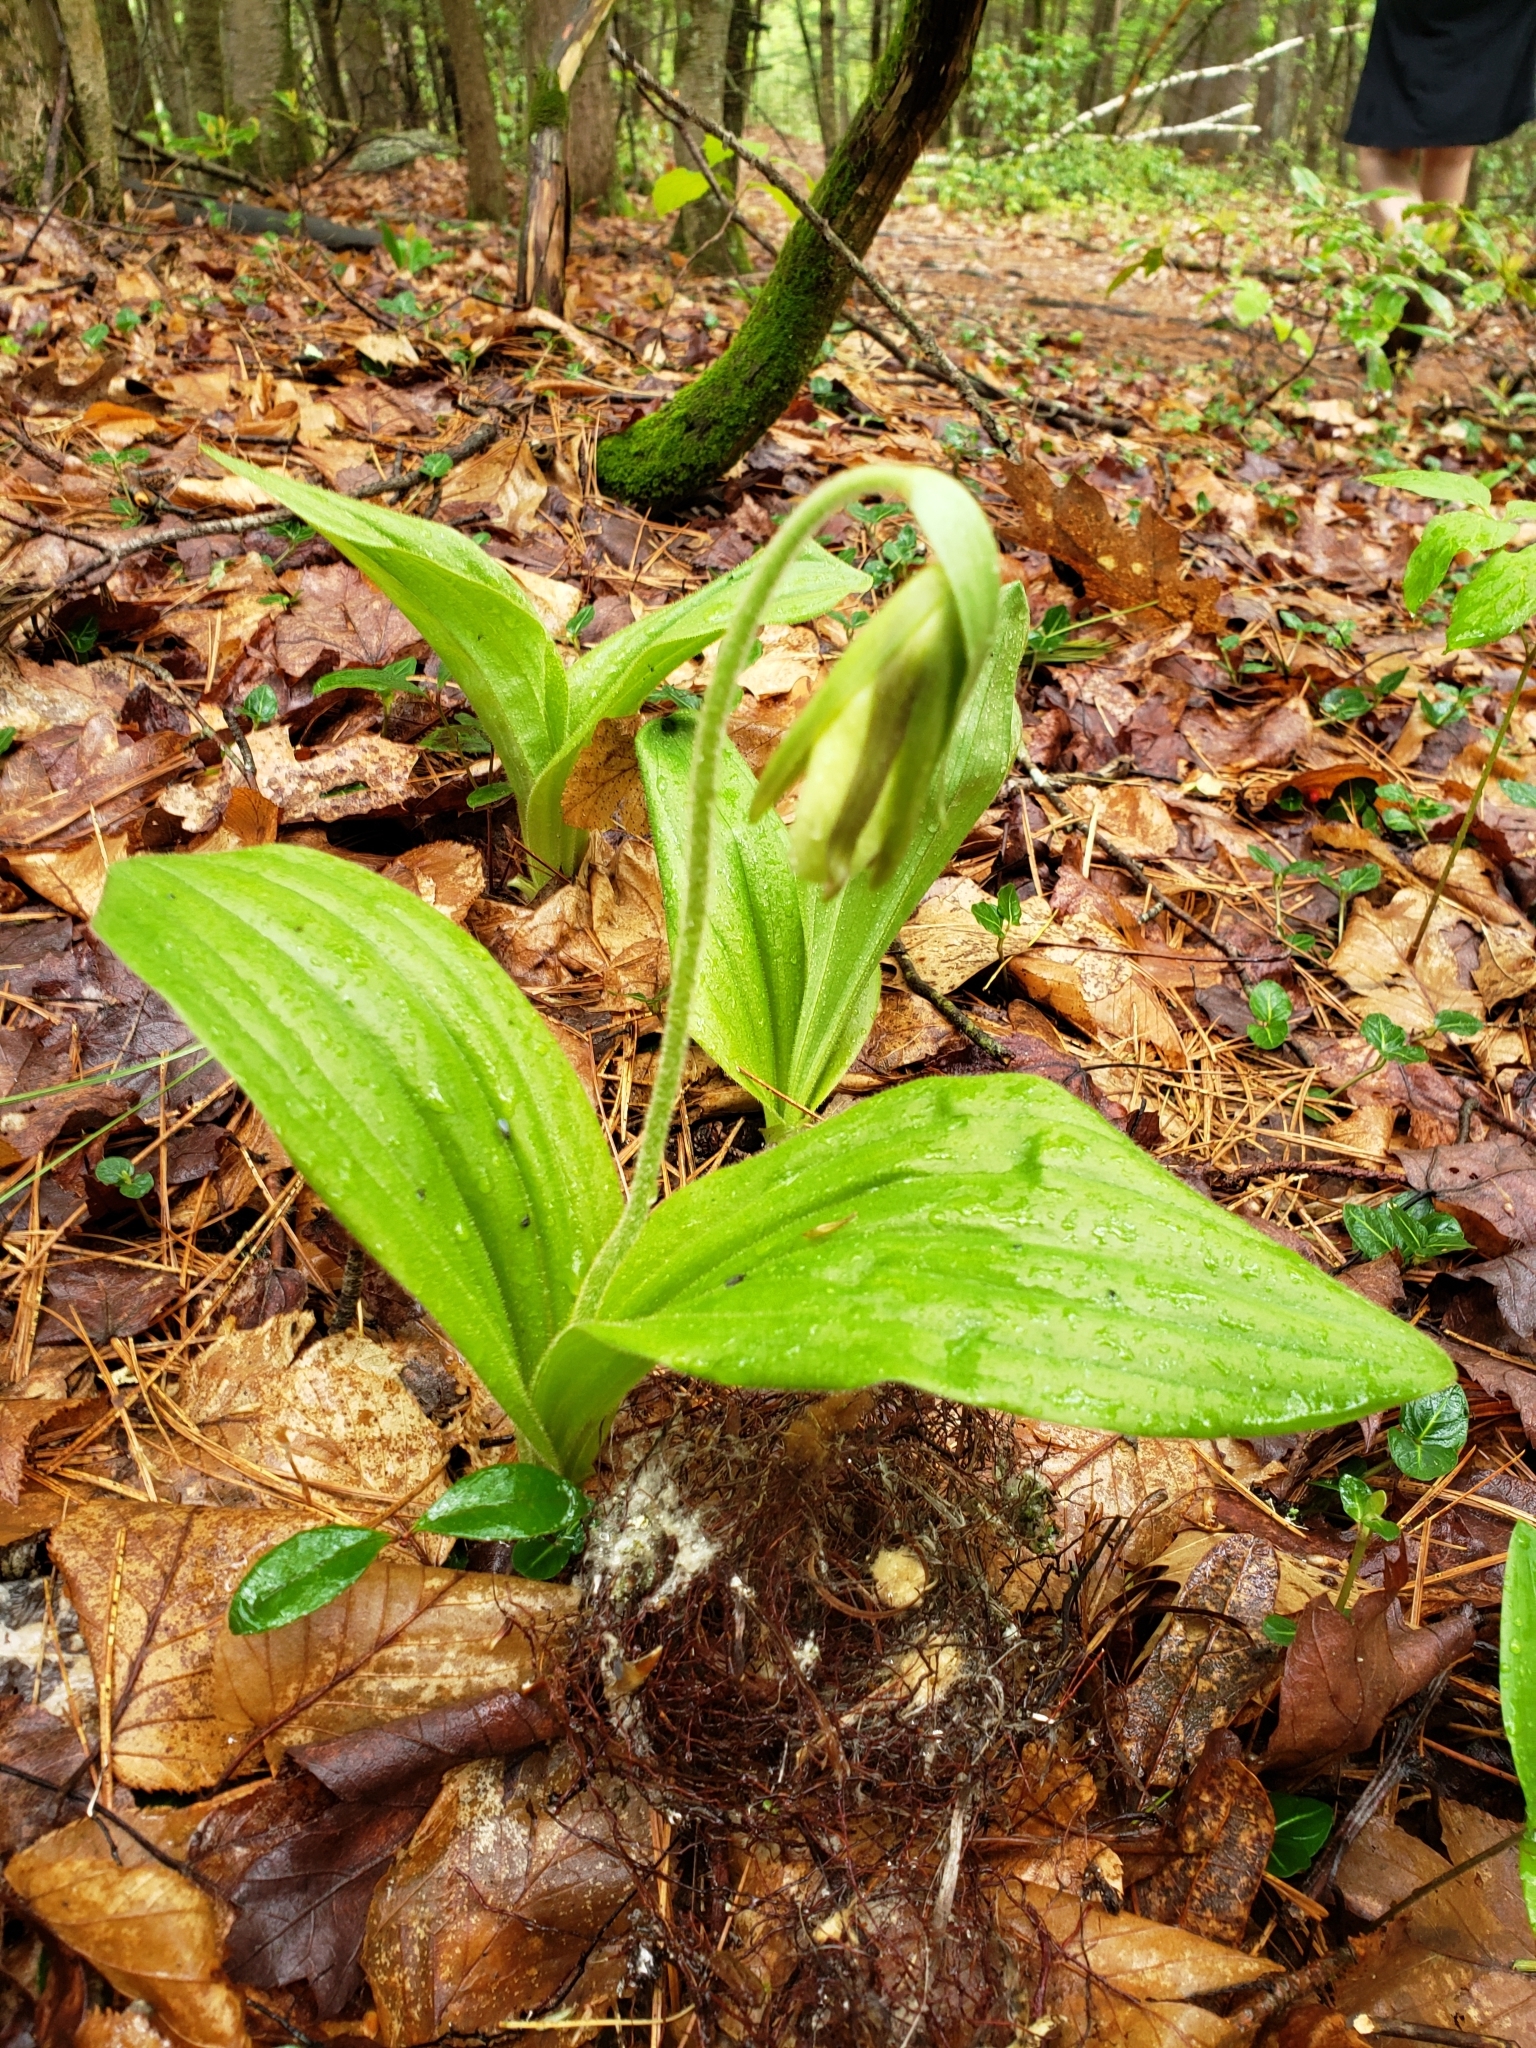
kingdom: Plantae
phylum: Tracheophyta
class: Liliopsida
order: Asparagales
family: Orchidaceae
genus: Cypripedium
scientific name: Cypripedium acaule
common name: Pink lady's-slipper
